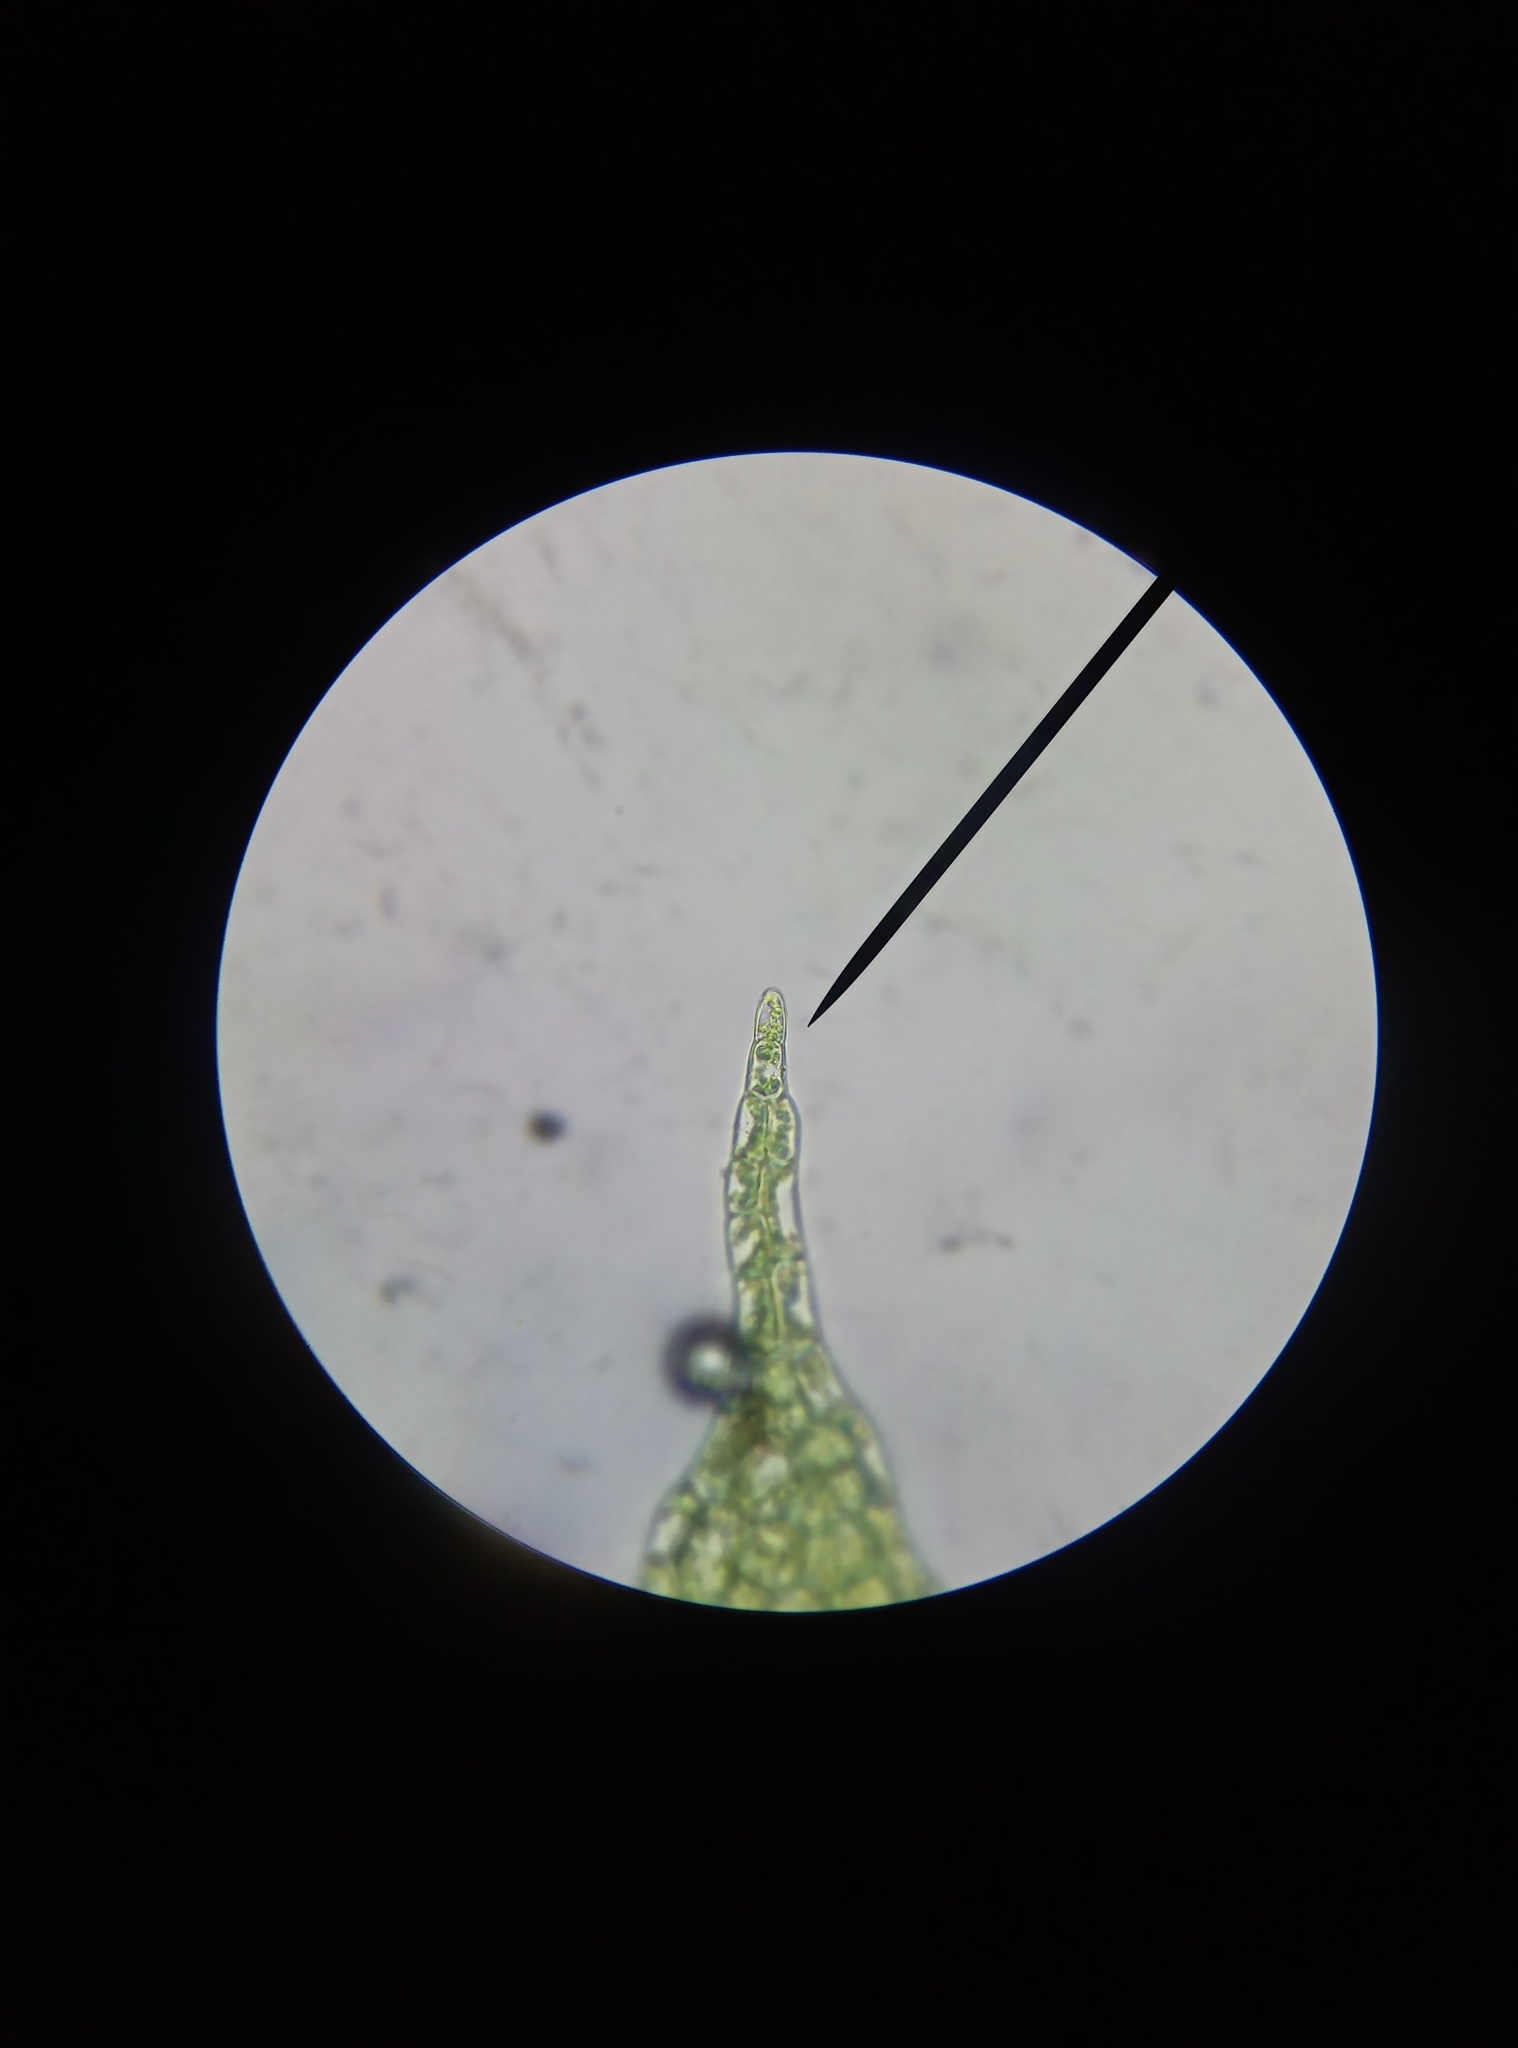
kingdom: Plantae
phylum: Marchantiophyta
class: Jungermanniopsida
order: Jungermanniales
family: Lophocoleaceae
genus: Lophocolea
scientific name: Lophocolea bidentata
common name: Bifid crestwort
